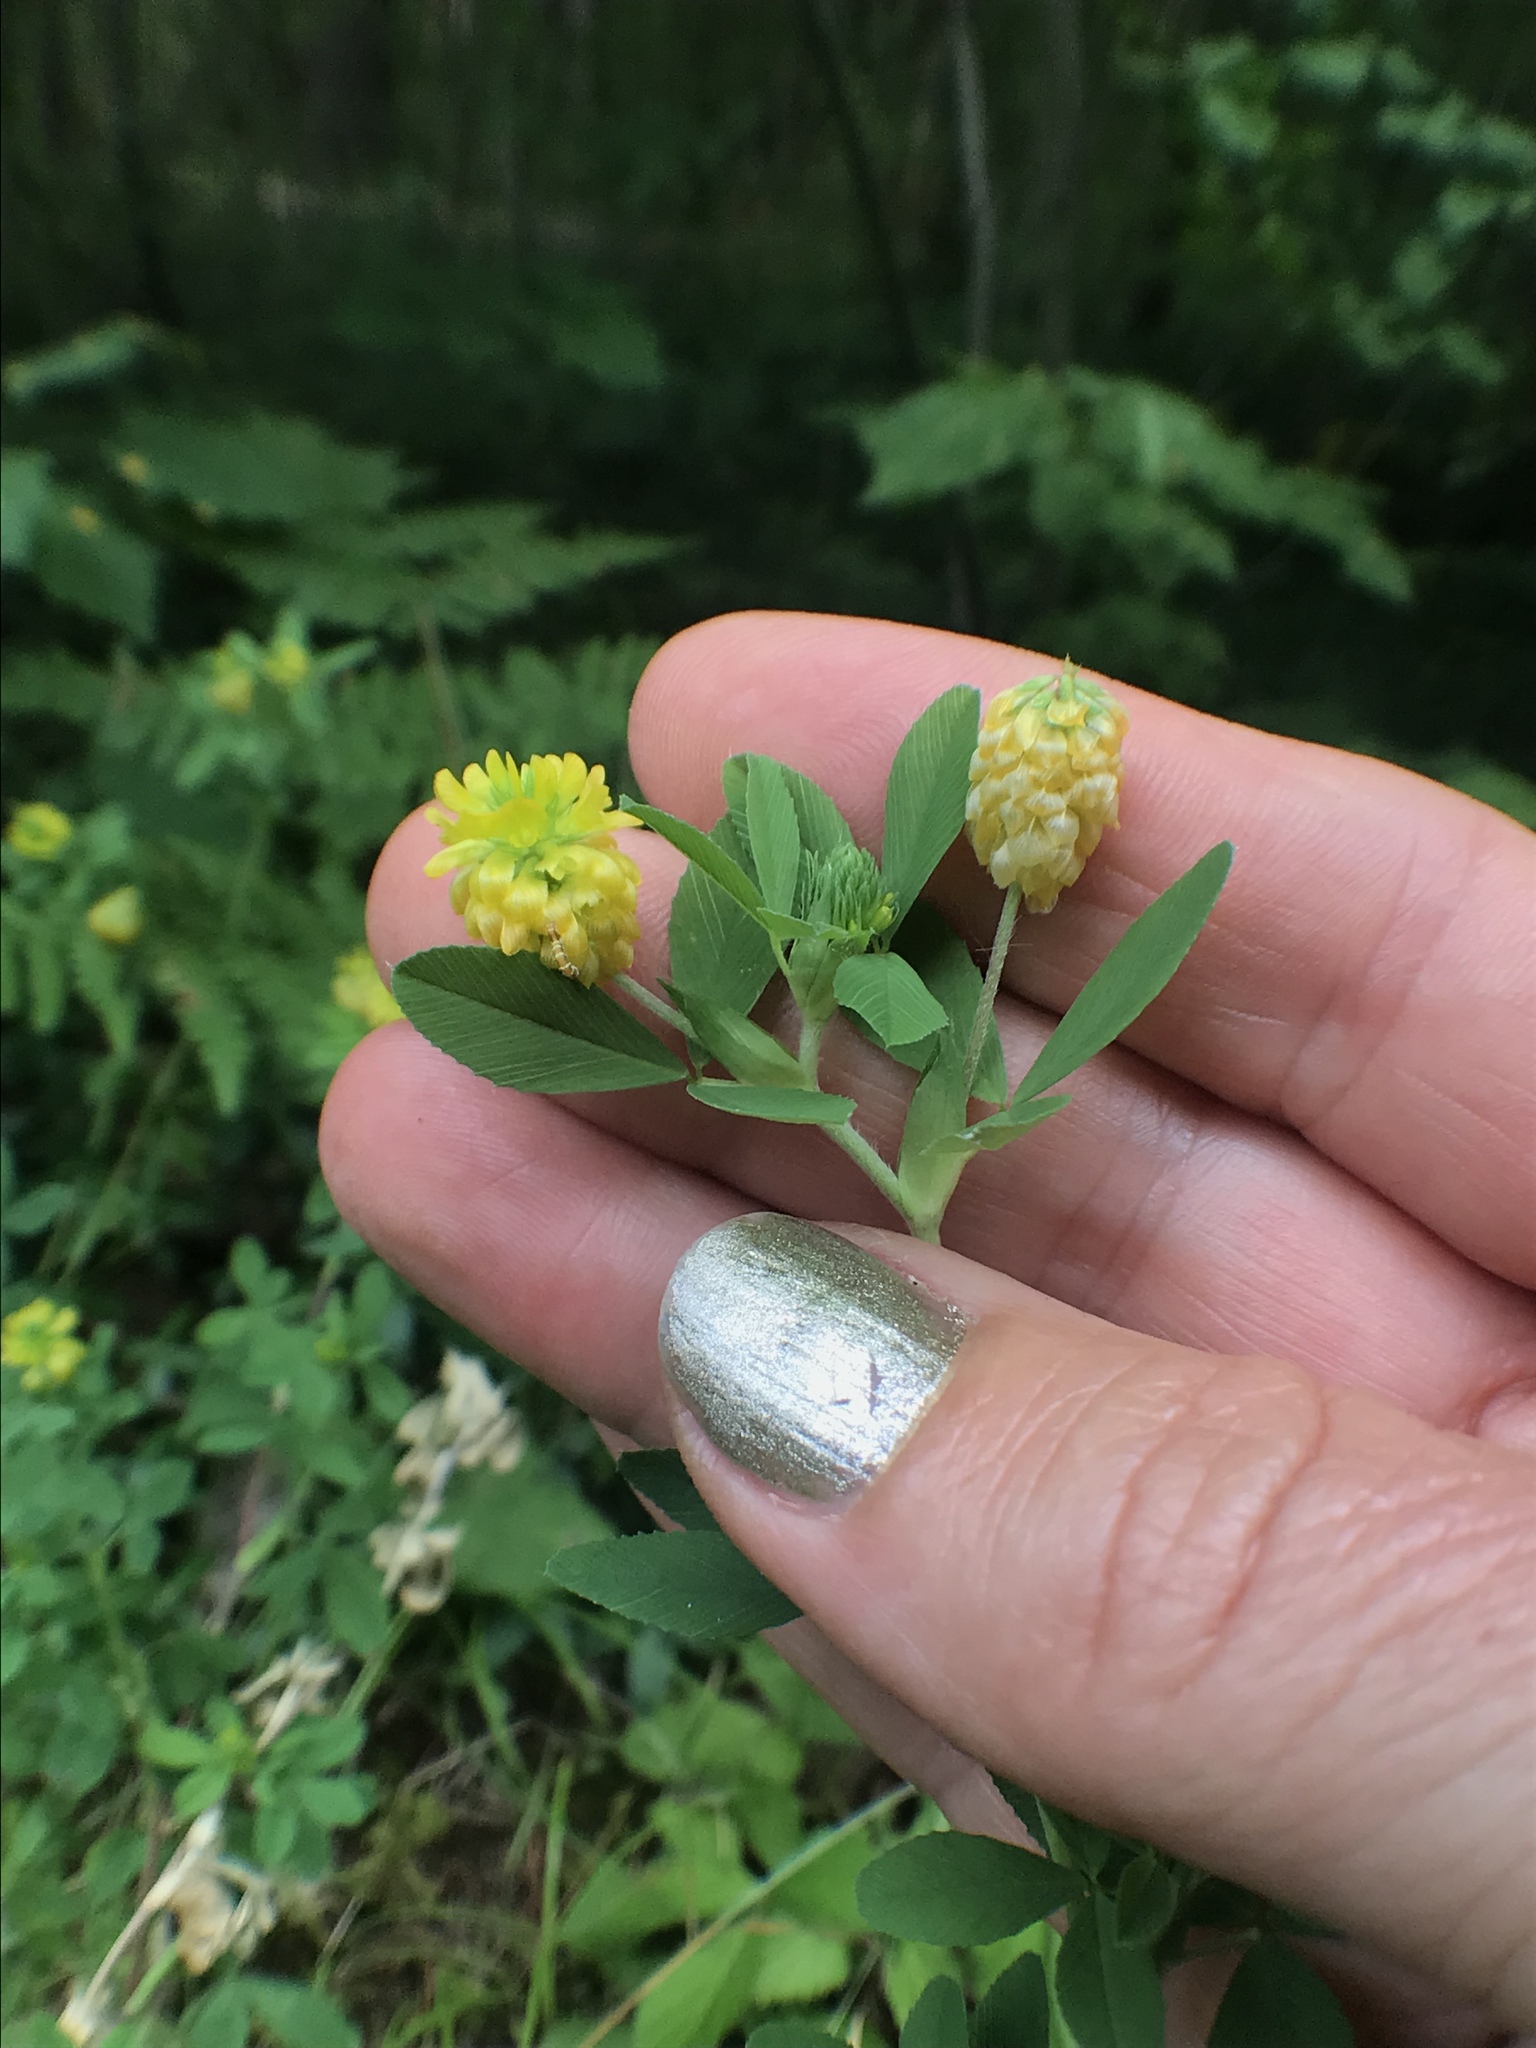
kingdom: Plantae
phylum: Tracheophyta
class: Magnoliopsida
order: Fabales
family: Fabaceae
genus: Trifolium
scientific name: Trifolium aureum
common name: Golden clover
